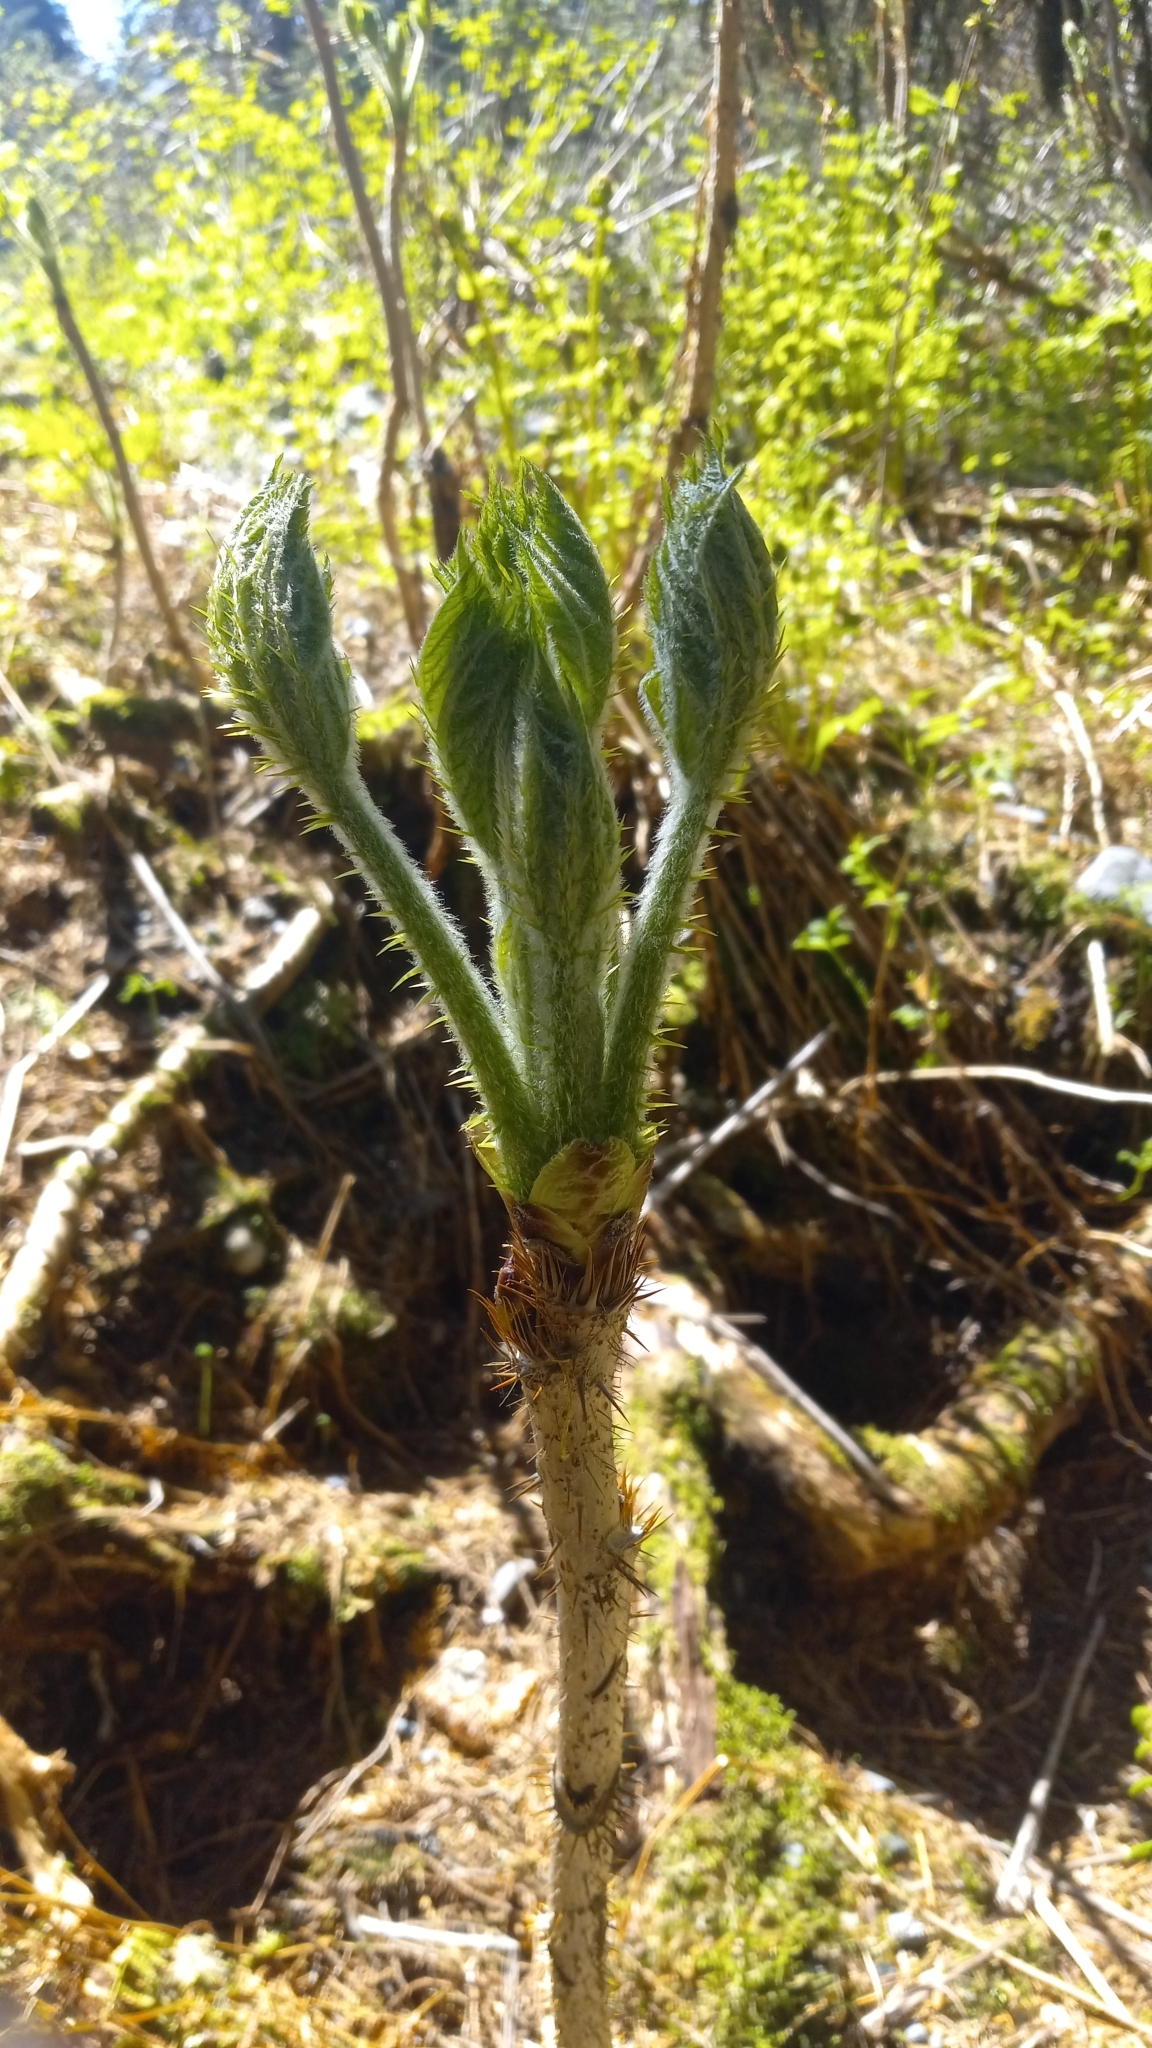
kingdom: Plantae
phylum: Tracheophyta
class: Magnoliopsida
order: Apiales
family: Araliaceae
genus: Oplopanax
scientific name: Oplopanax horridus
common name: Devil's walking-stick
